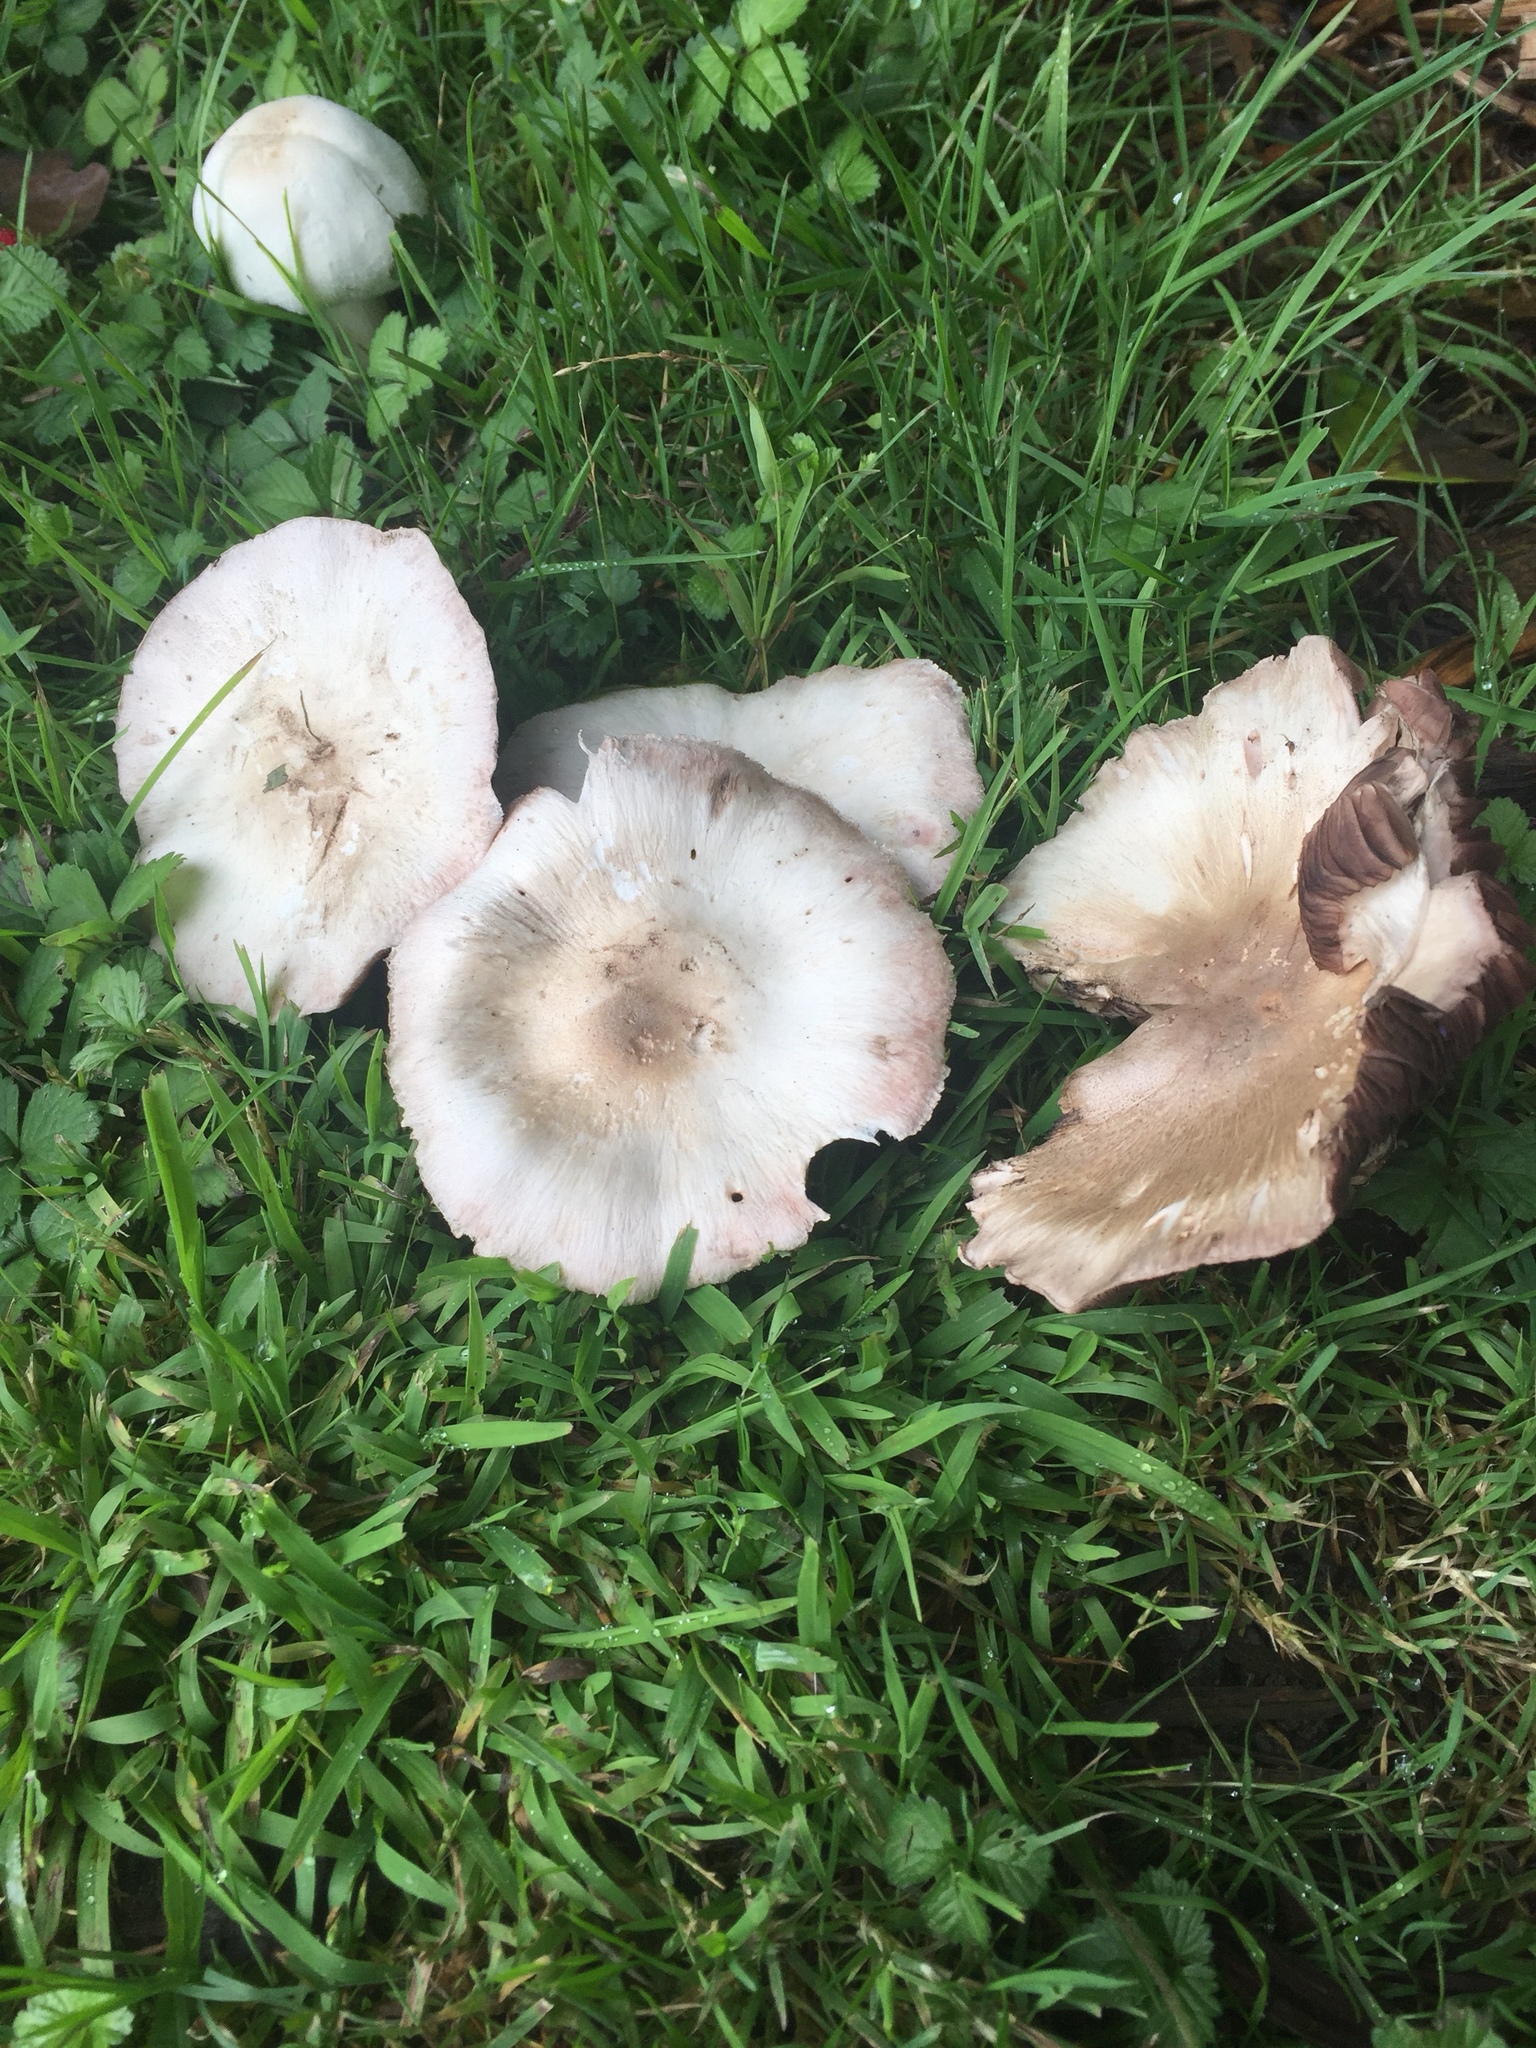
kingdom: Fungi
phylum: Basidiomycota
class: Agaricomycetes
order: Agaricales
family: Agaricaceae
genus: Agaricus
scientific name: Agaricus californicus
